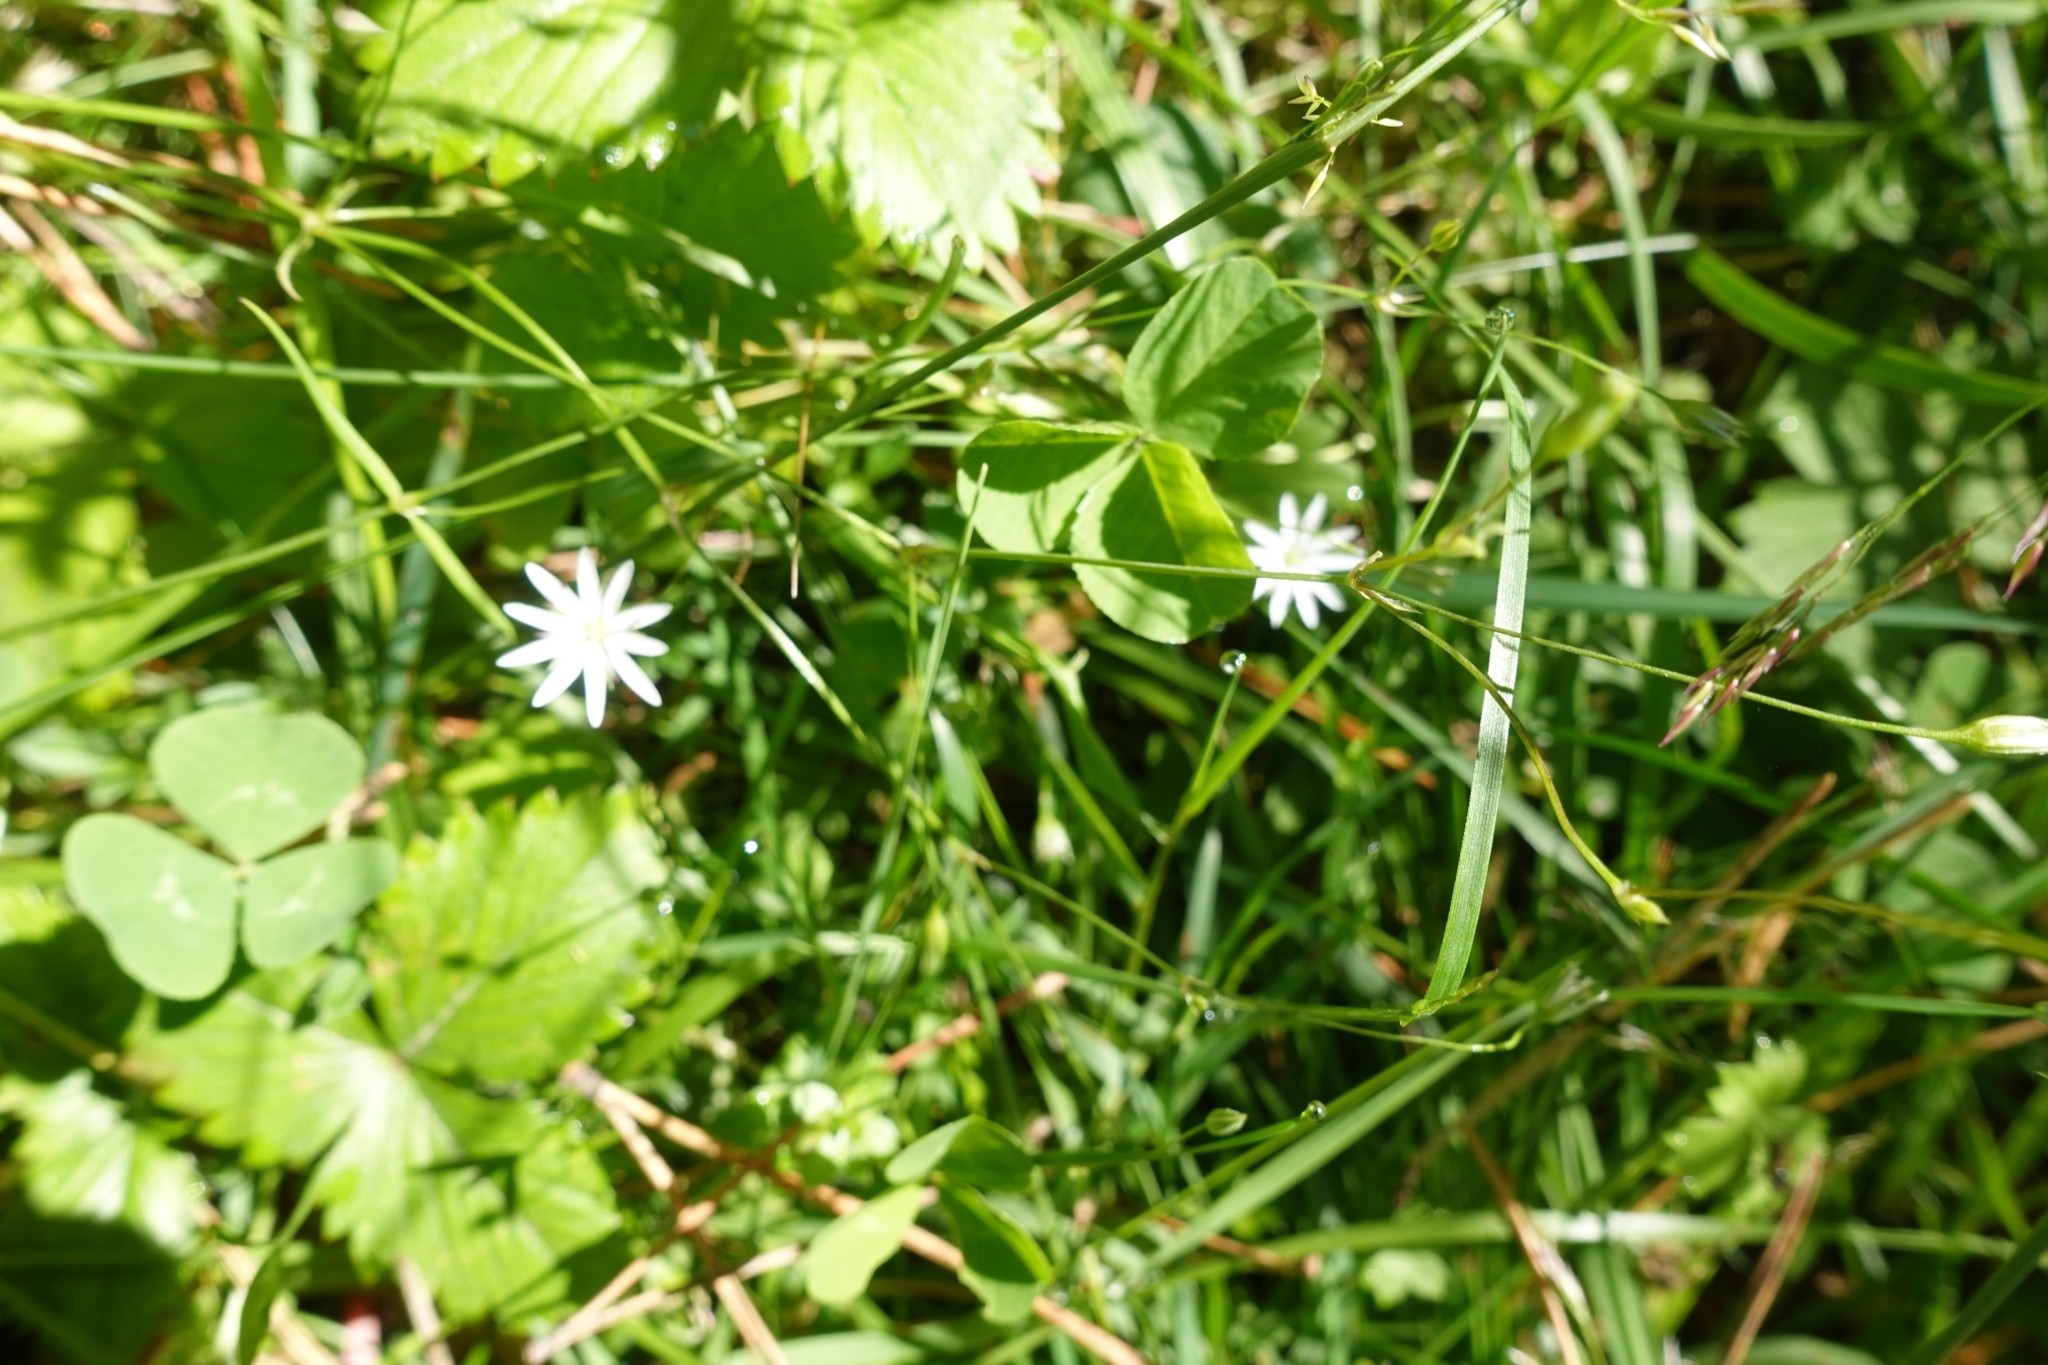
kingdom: Plantae
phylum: Tracheophyta
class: Magnoliopsida
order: Caryophyllales
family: Caryophyllaceae
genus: Stellaria
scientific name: Stellaria graminea
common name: Grass-like starwort
